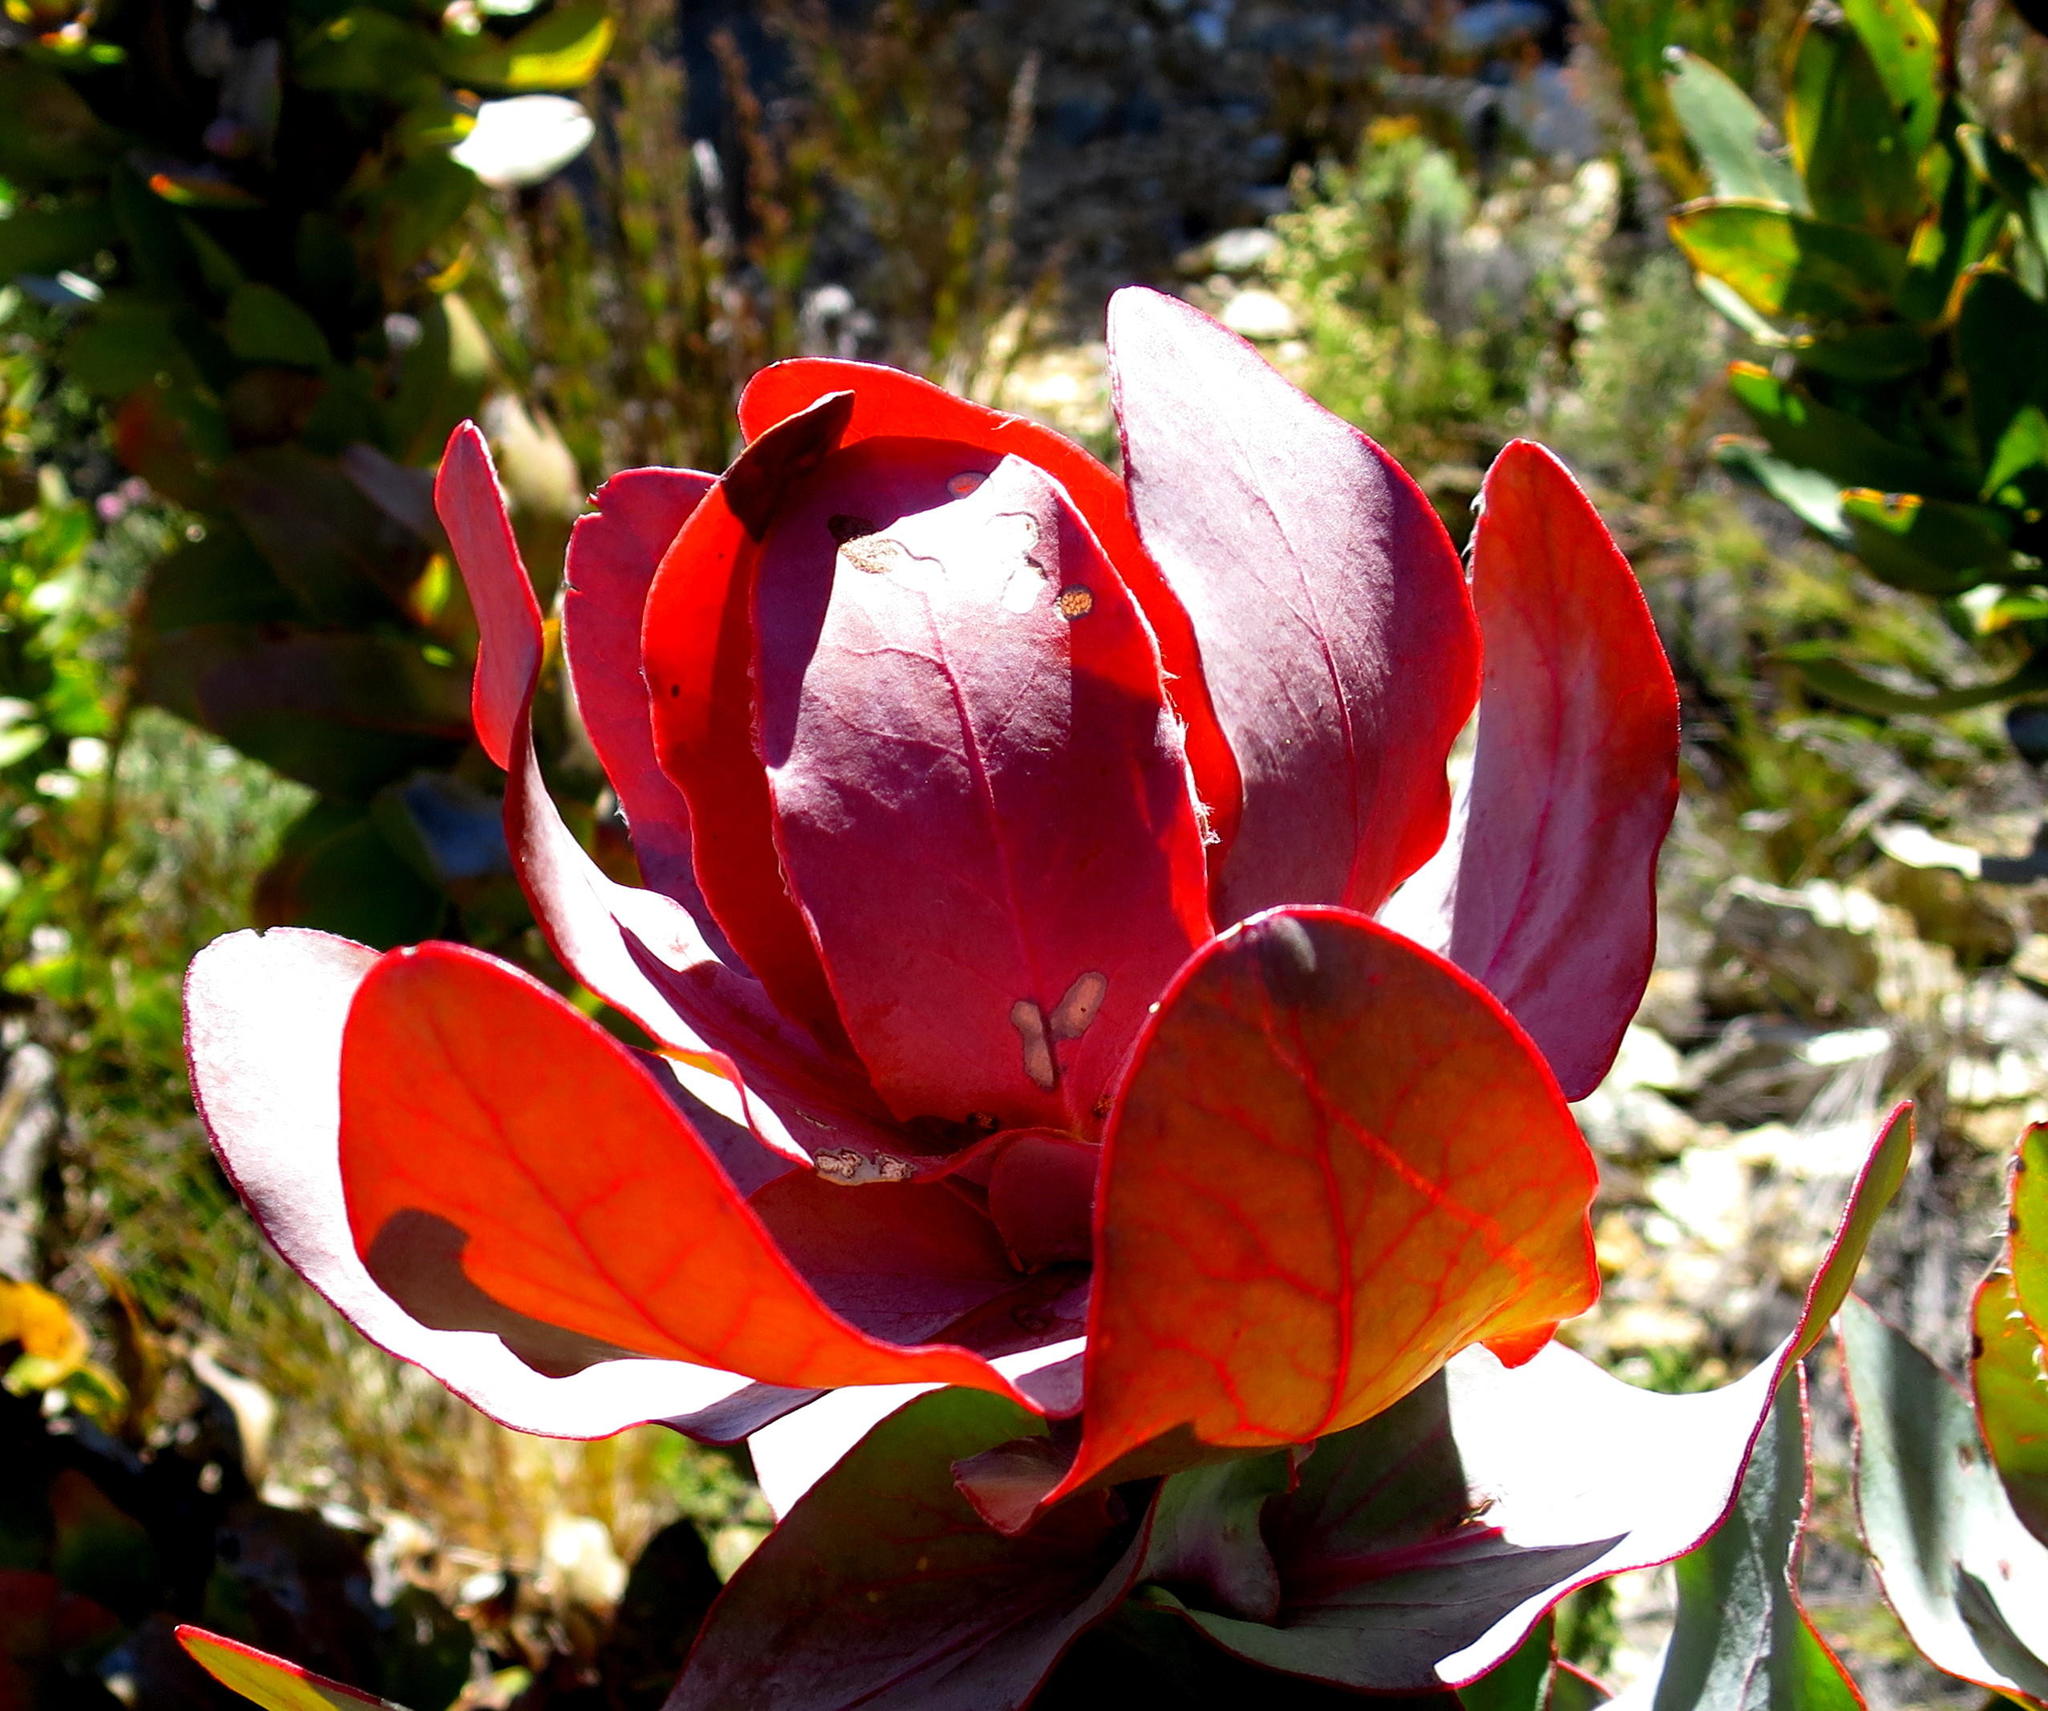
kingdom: Plantae
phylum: Tracheophyta
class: Magnoliopsida
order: Proteales
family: Proteaceae
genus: Protea
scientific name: Protea eximia
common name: Broad-leaved sugarbush
